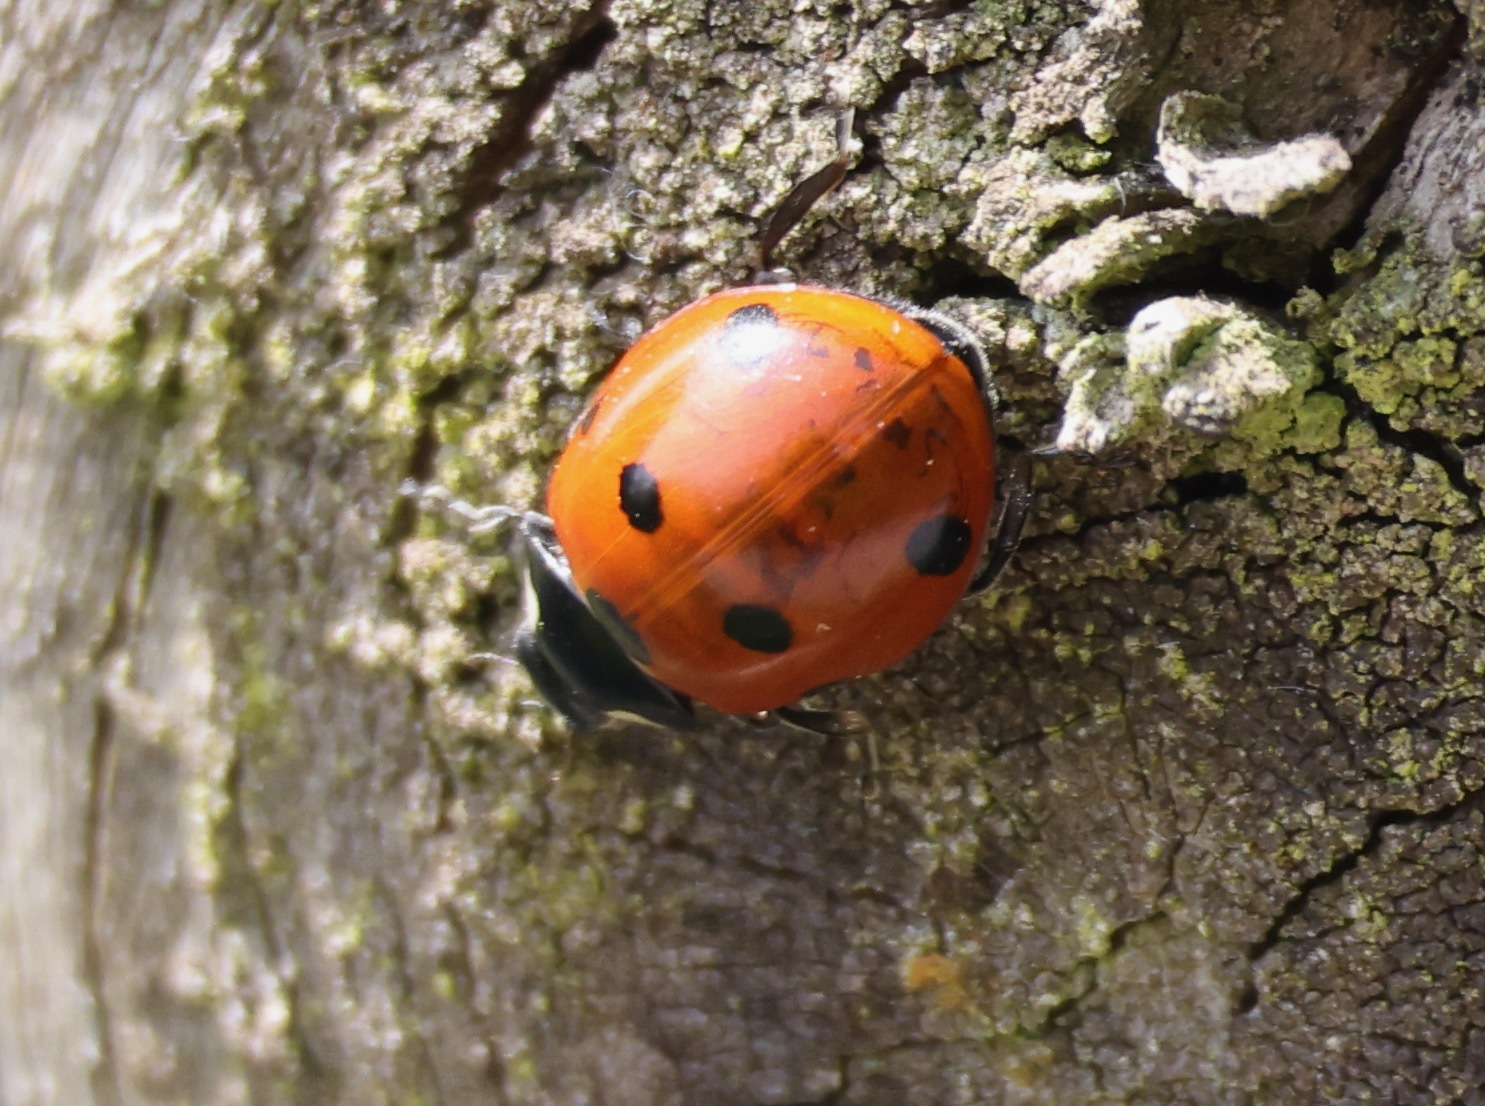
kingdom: Animalia
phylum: Arthropoda
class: Insecta
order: Coleoptera
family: Coccinellidae
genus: Coccinella
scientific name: Coccinella septempunctata
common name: Sevenspotted lady beetle
